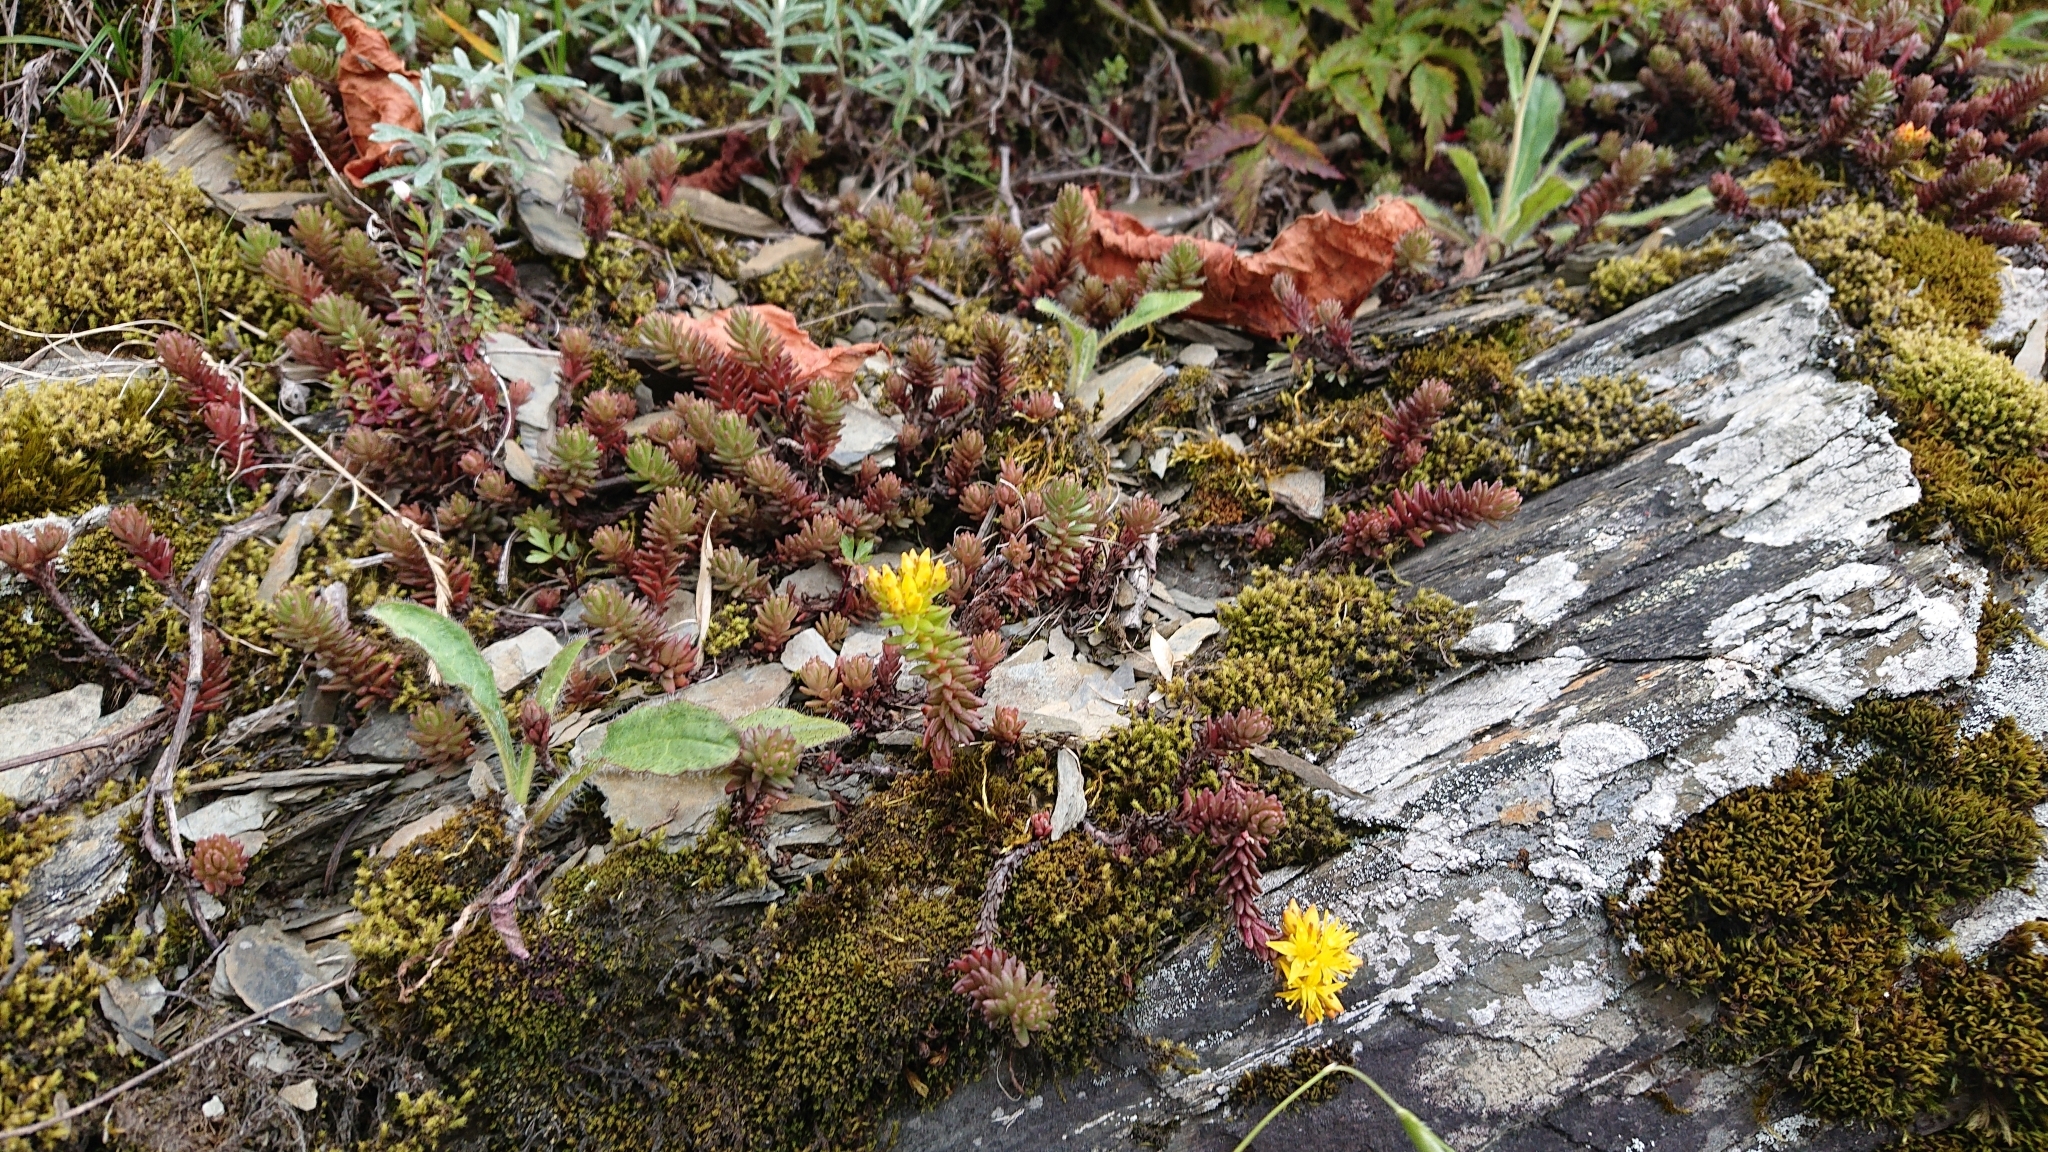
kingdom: Plantae
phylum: Tracheophyta
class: Magnoliopsida
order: Saxifragales
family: Crassulaceae
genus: Sedum
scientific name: Sedum morrisonense
